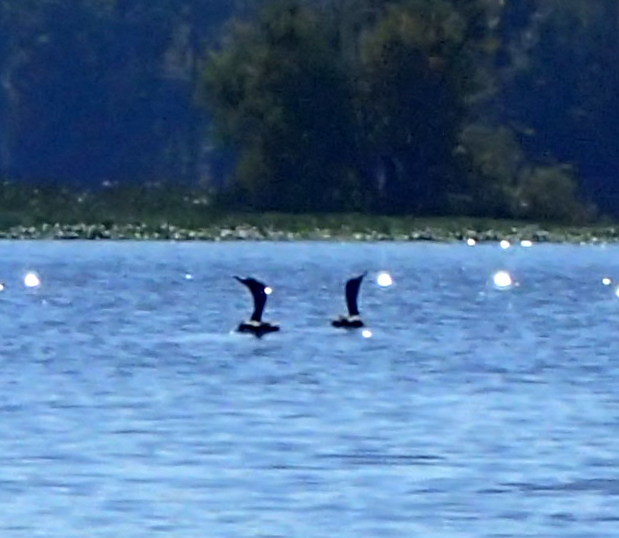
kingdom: Animalia
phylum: Chordata
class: Aves
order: Suliformes
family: Phalacrocoracidae
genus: Phalacrocorax
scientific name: Phalacrocorax auritus
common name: Double-crested cormorant
